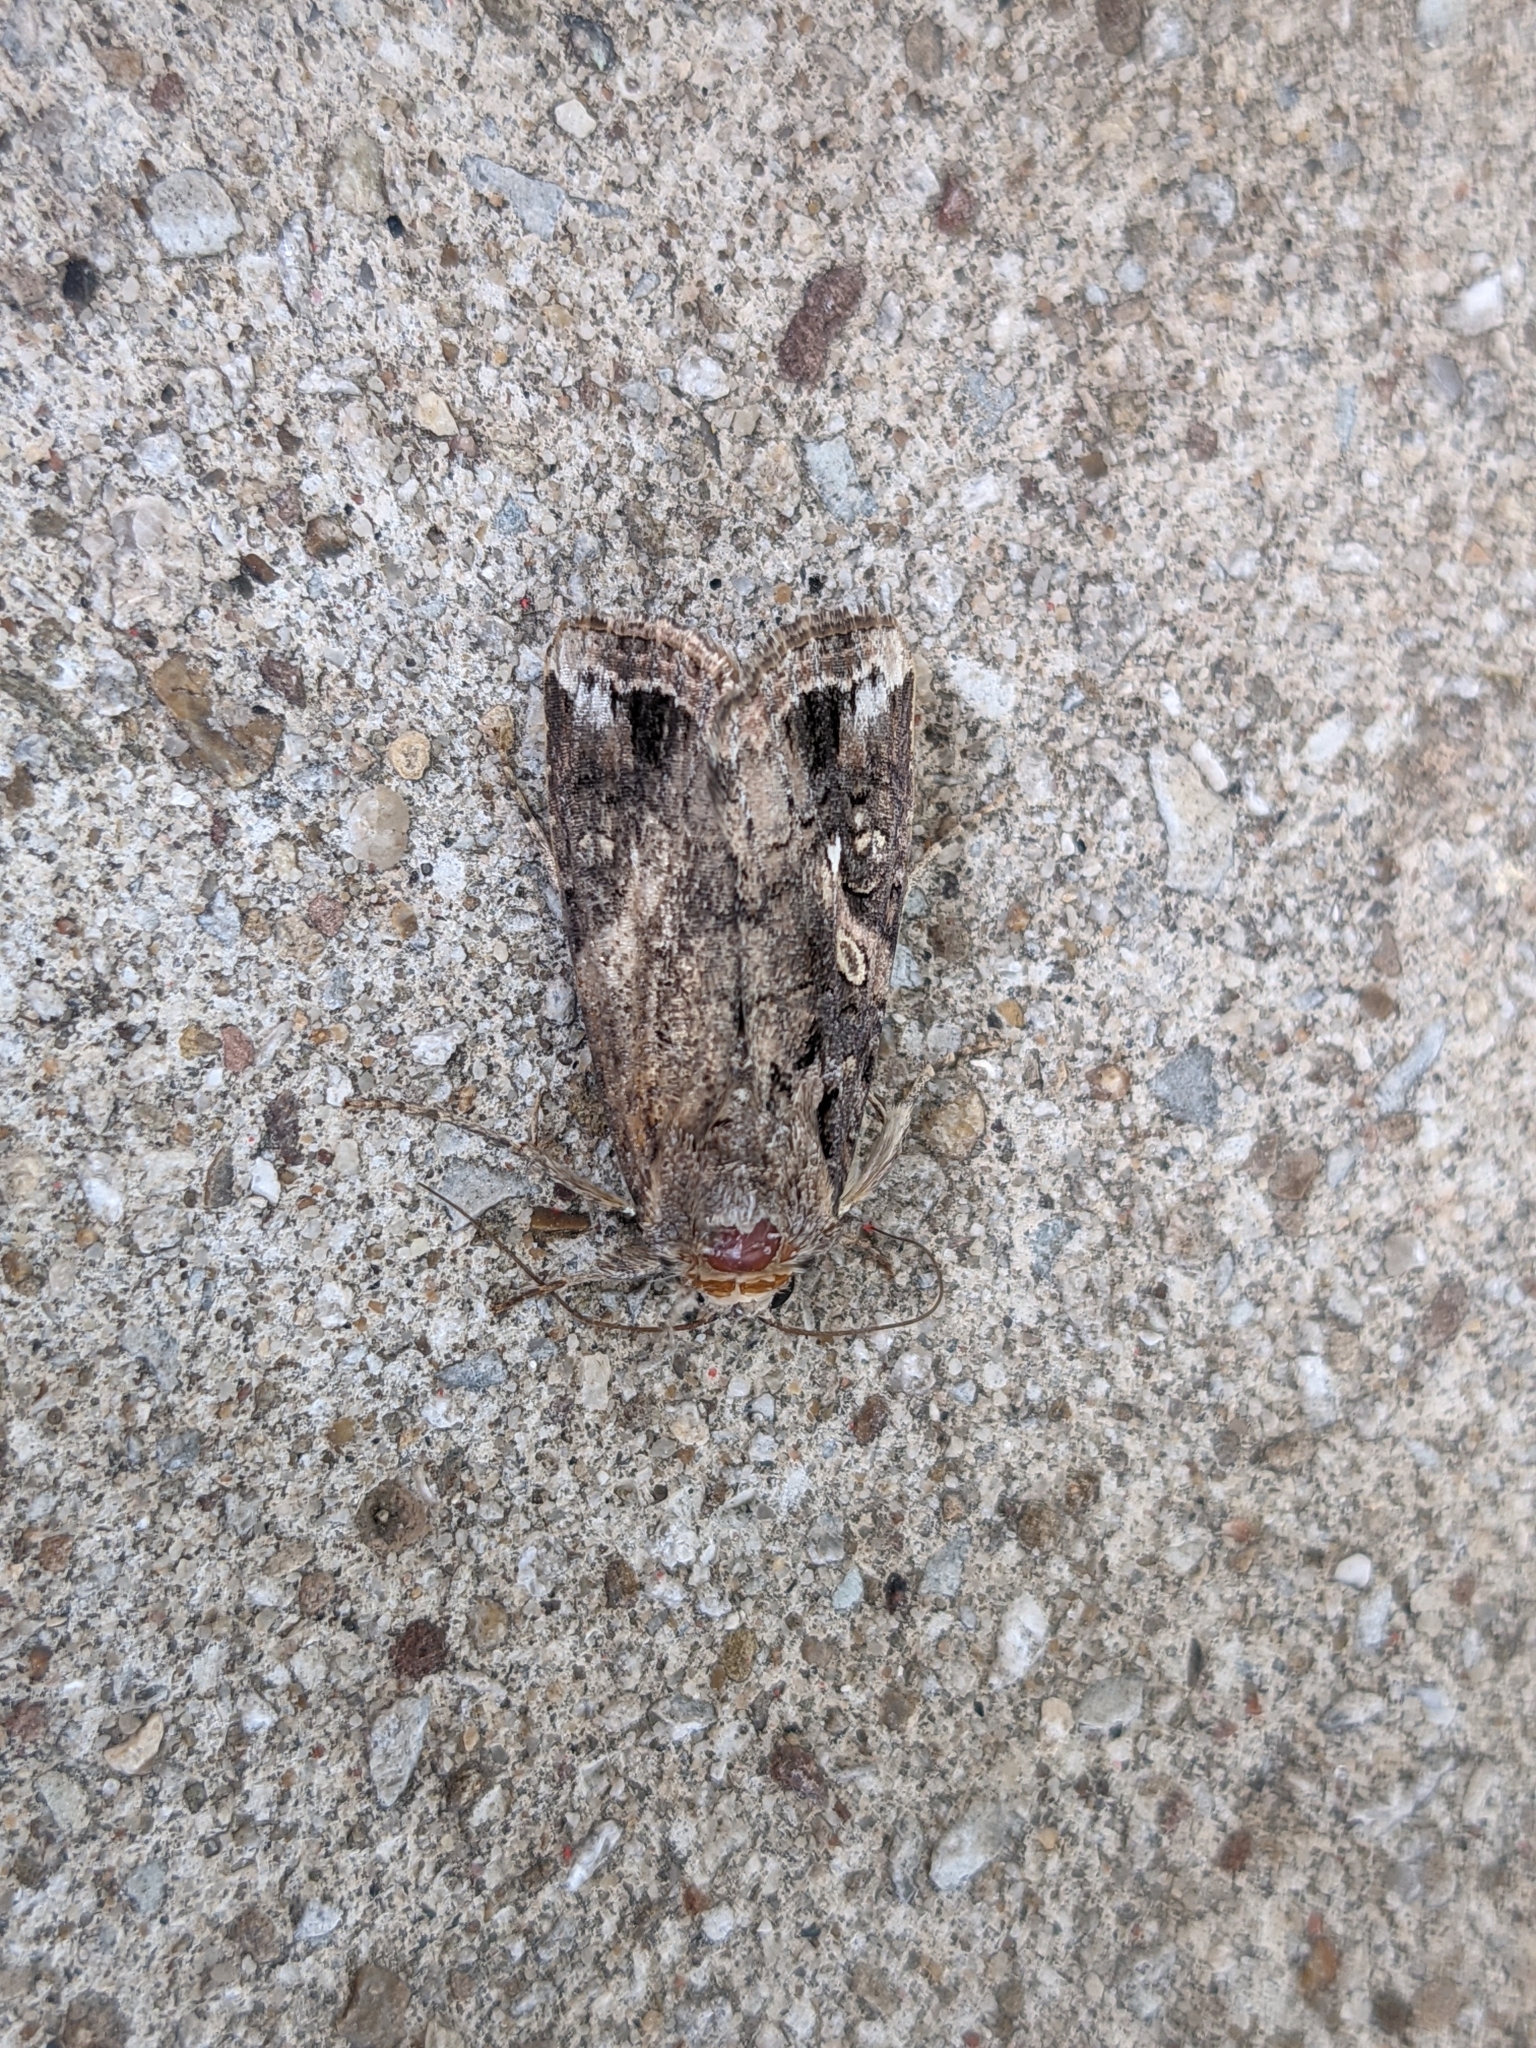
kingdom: Animalia
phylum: Arthropoda
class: Insecta
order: Lepidoptera
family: Noctuidae
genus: Spodoptera
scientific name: Spodoptera frugiperda
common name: Fall armyworm
